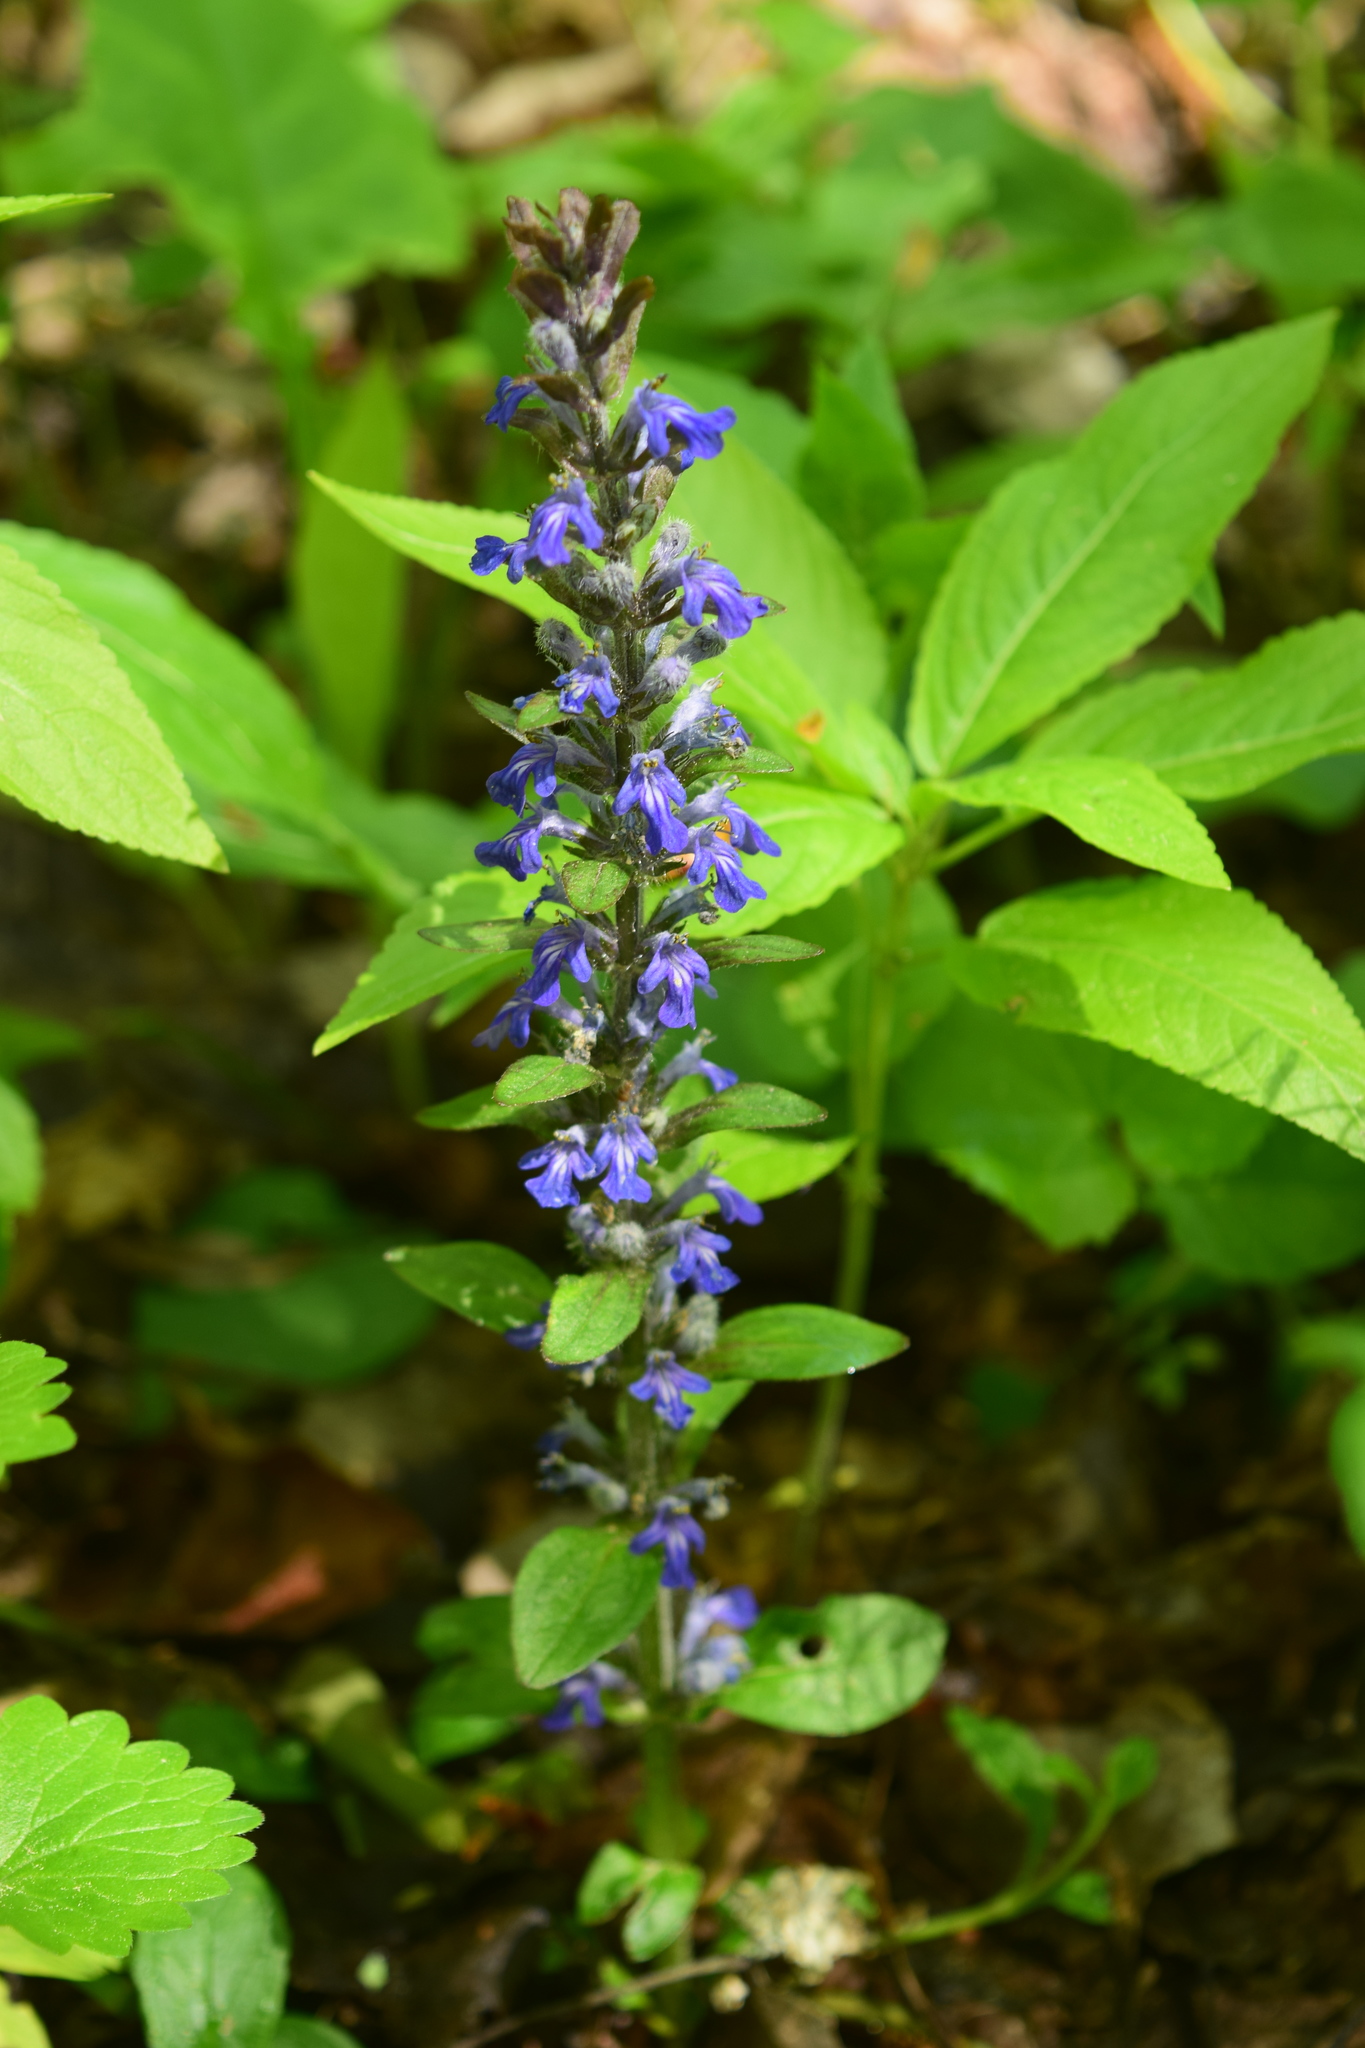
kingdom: Plantae
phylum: Tracheophyta
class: Magnoliopsida
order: Lamiales
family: Lamiaceae
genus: Ajuga
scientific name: Ajuga reptans
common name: Bugle
